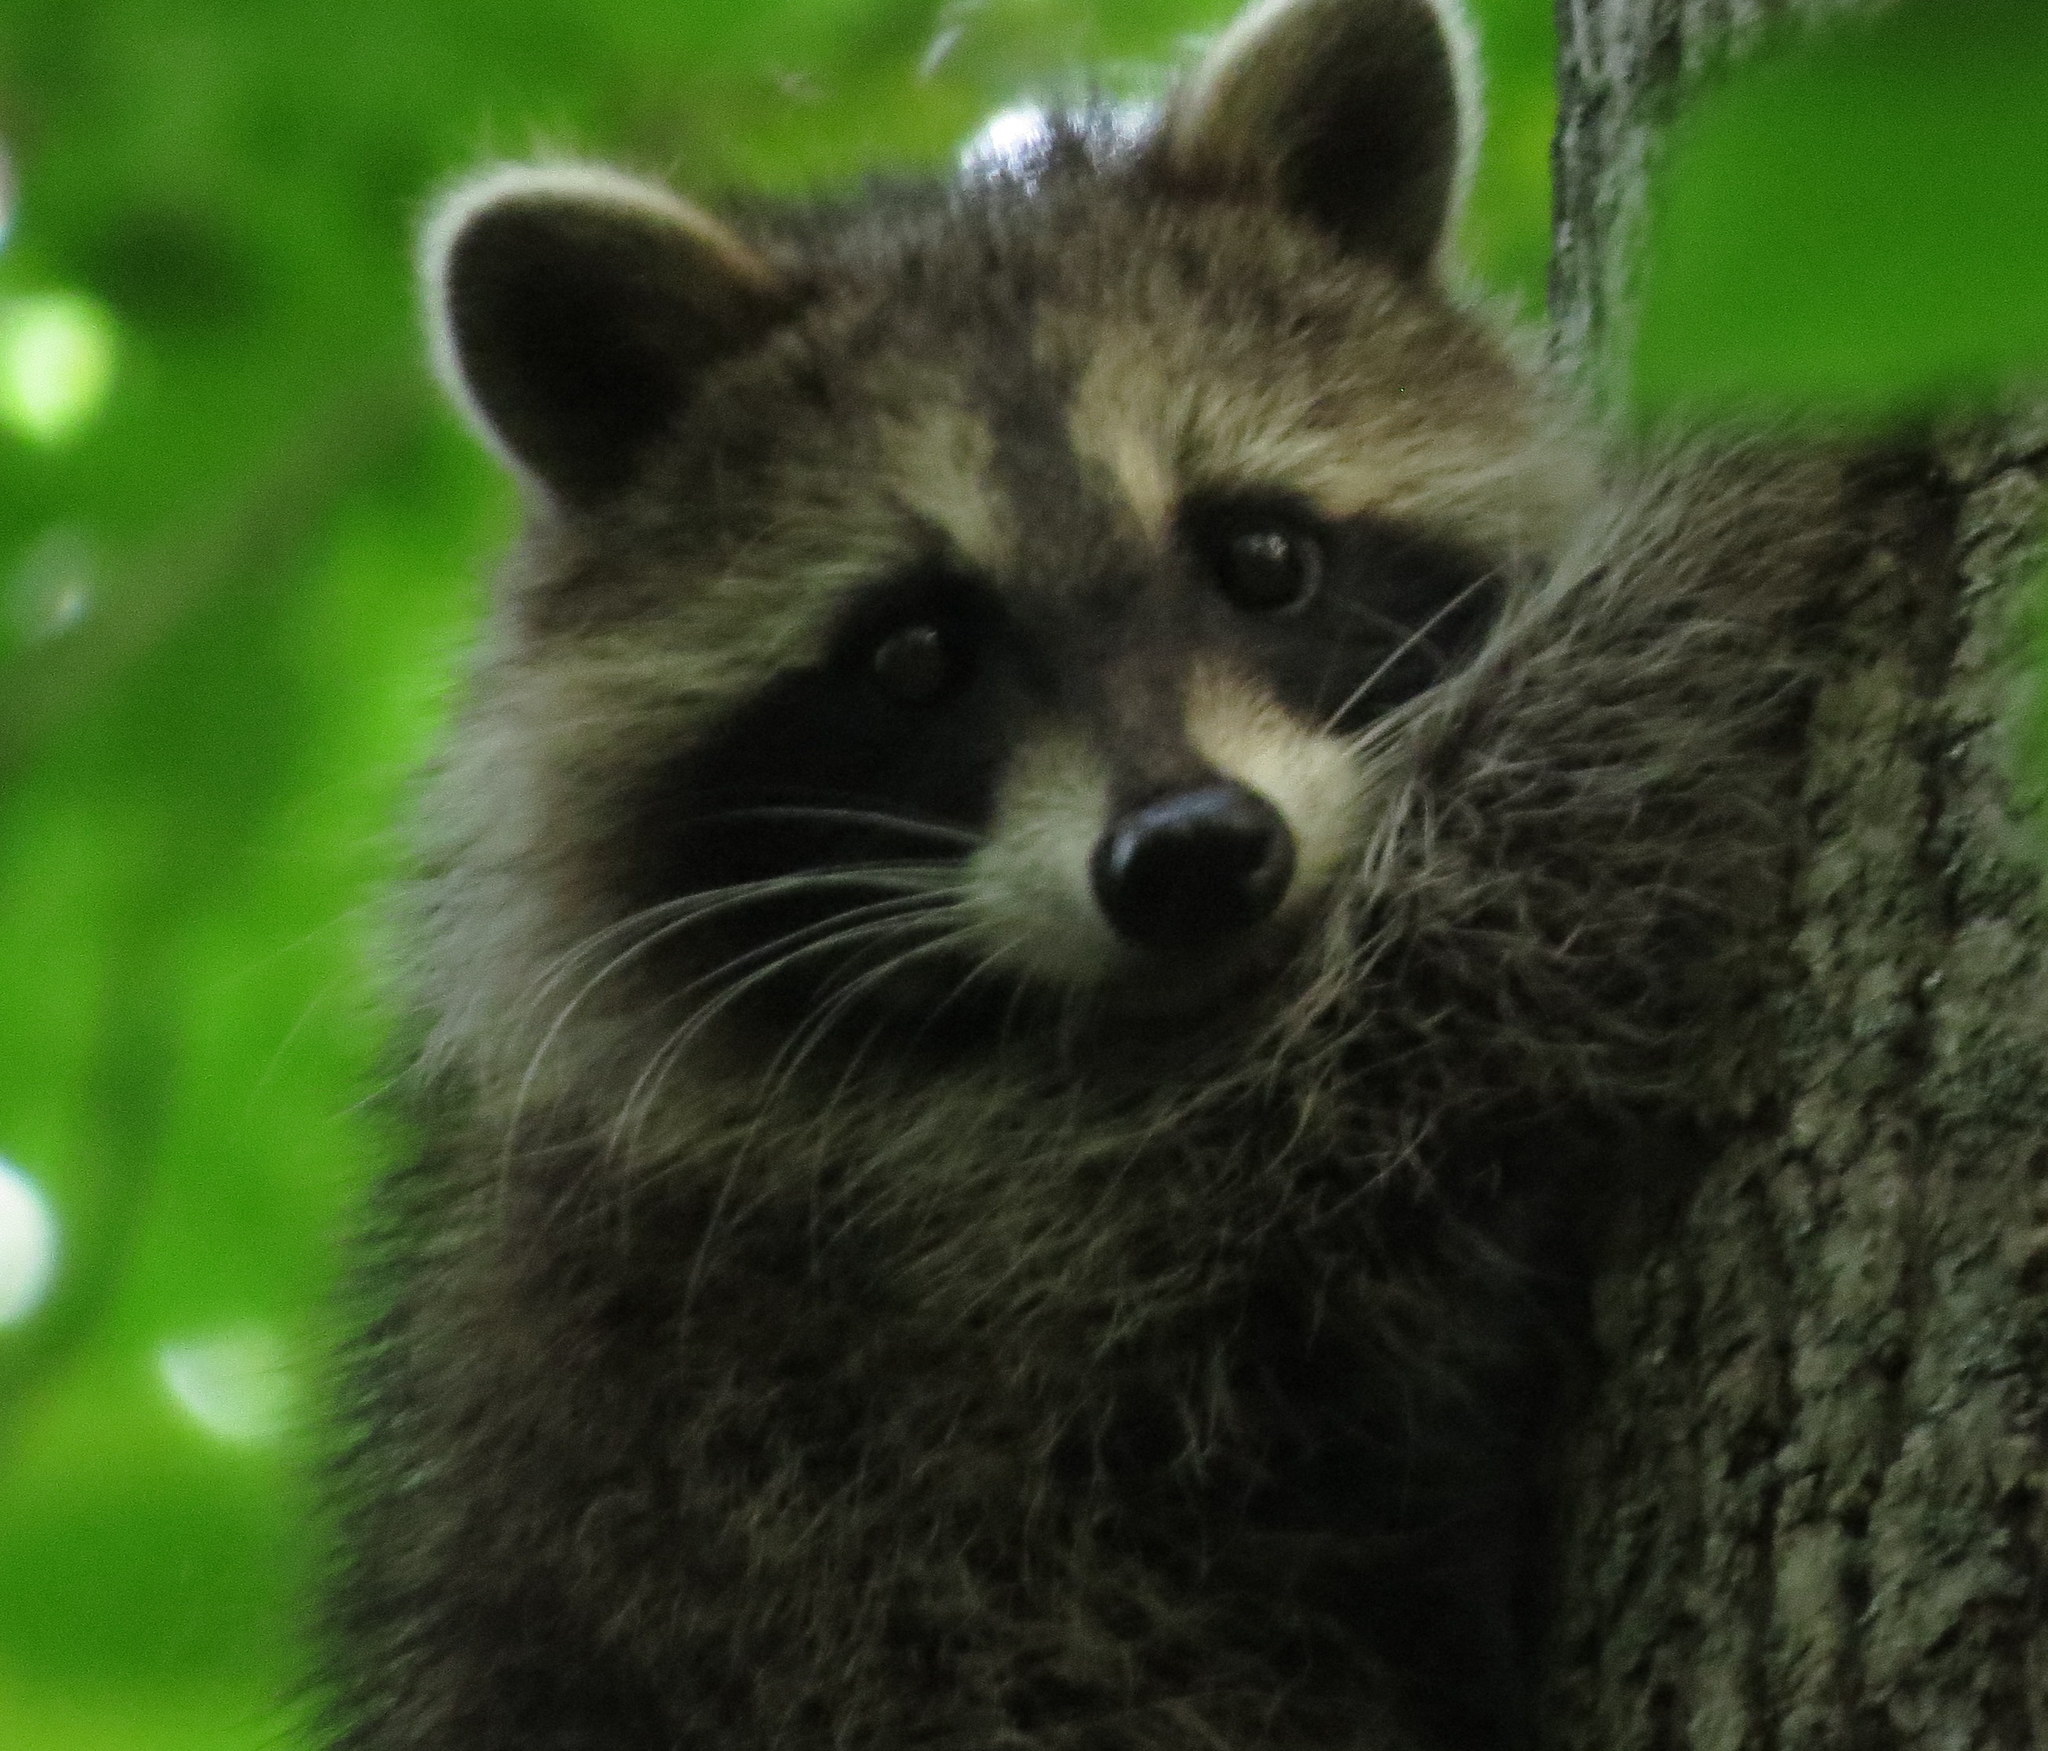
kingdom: Animalia
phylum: Chordata
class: Mammalia
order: Carnivora
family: Procyonidae
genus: Procyon
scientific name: Procyon lotor
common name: Raccoon
